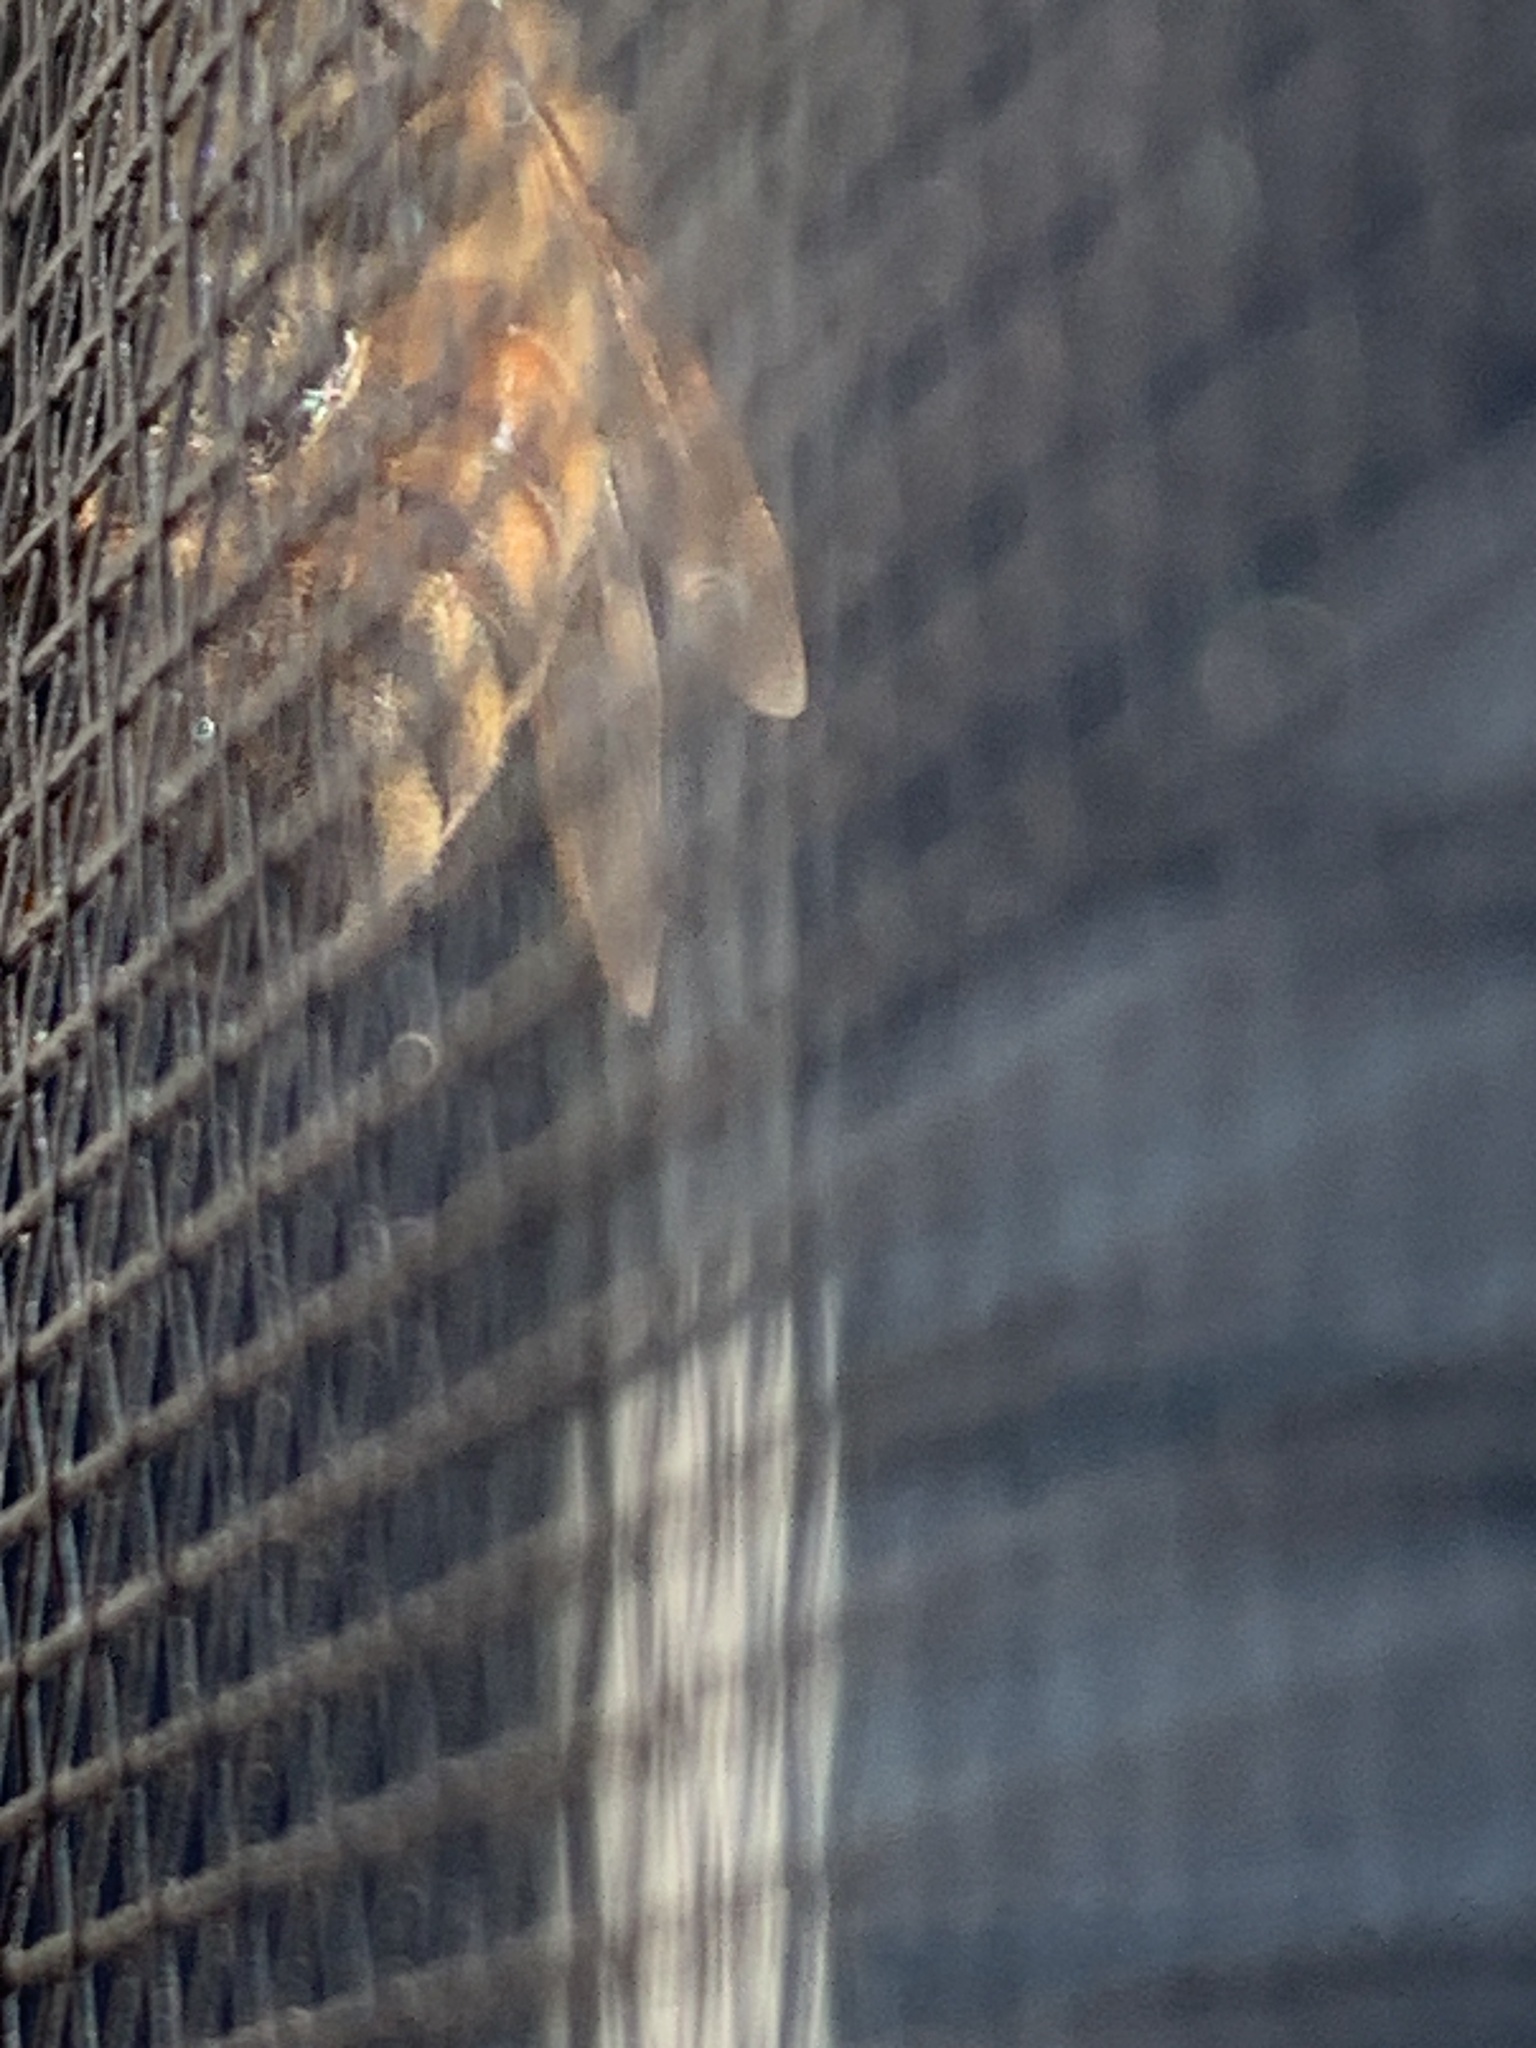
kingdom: Animalia
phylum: Arthropoda
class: Insecta
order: Hymenoptera
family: Apidae
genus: Apis
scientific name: Apis mellifera
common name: Honey bee
